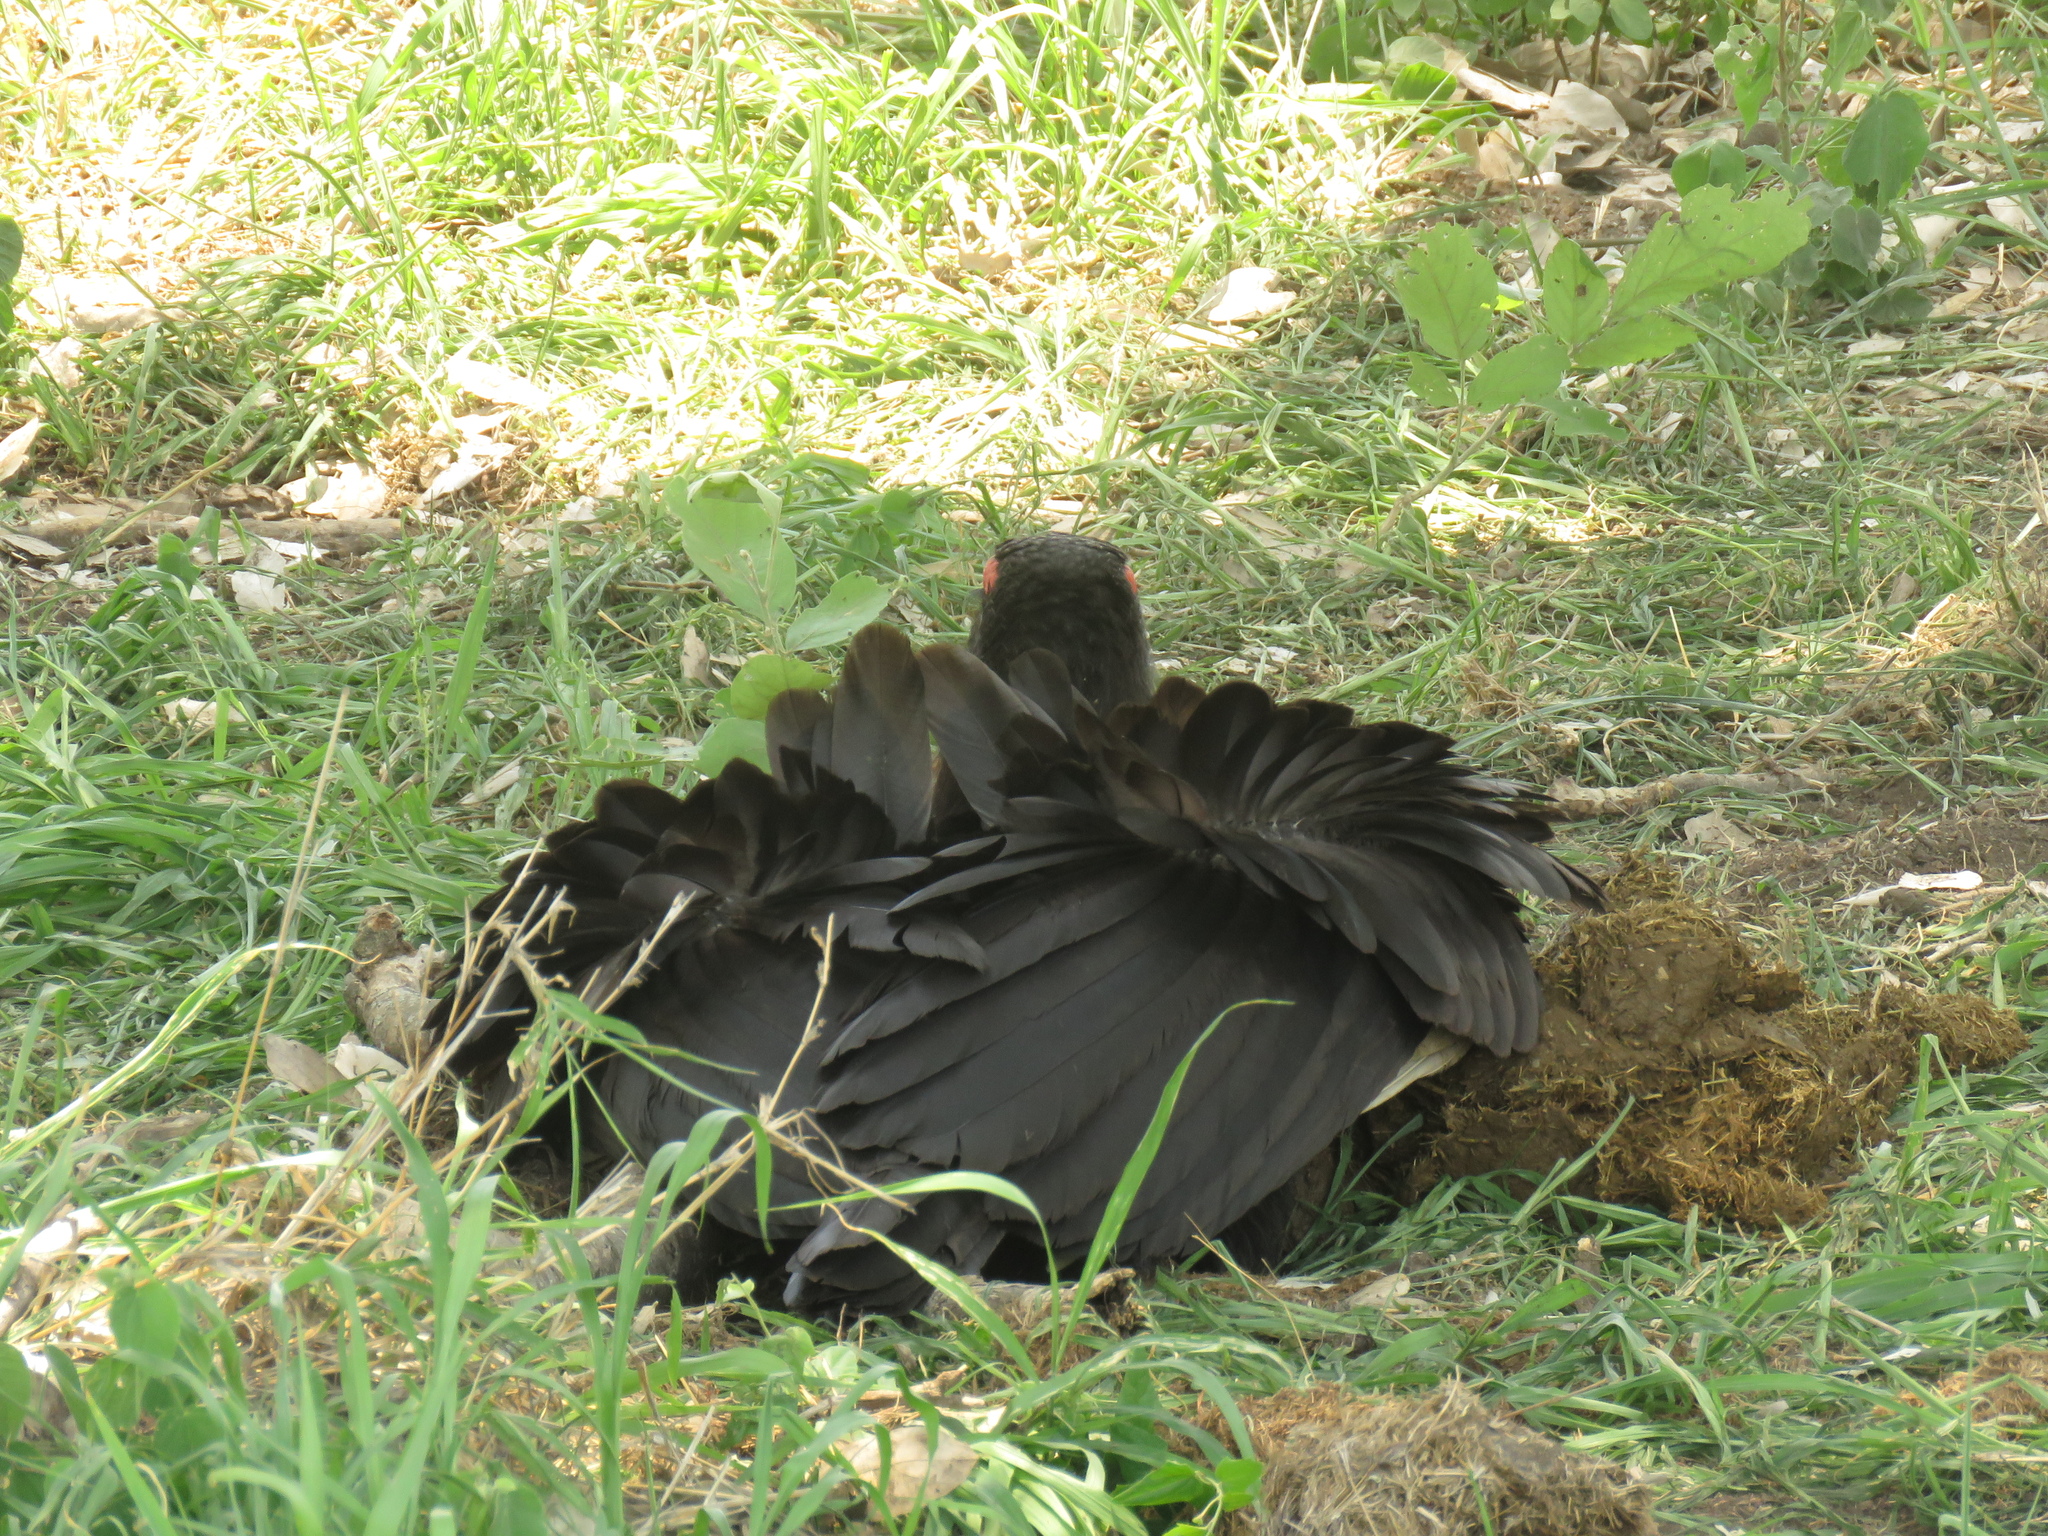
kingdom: Animalia
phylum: Chordata
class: Aves
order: Bucerotiformes
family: Bucorvidae
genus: Bucorvus
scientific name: Bucorvus leadbeateri
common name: Southern ground-hornbill
